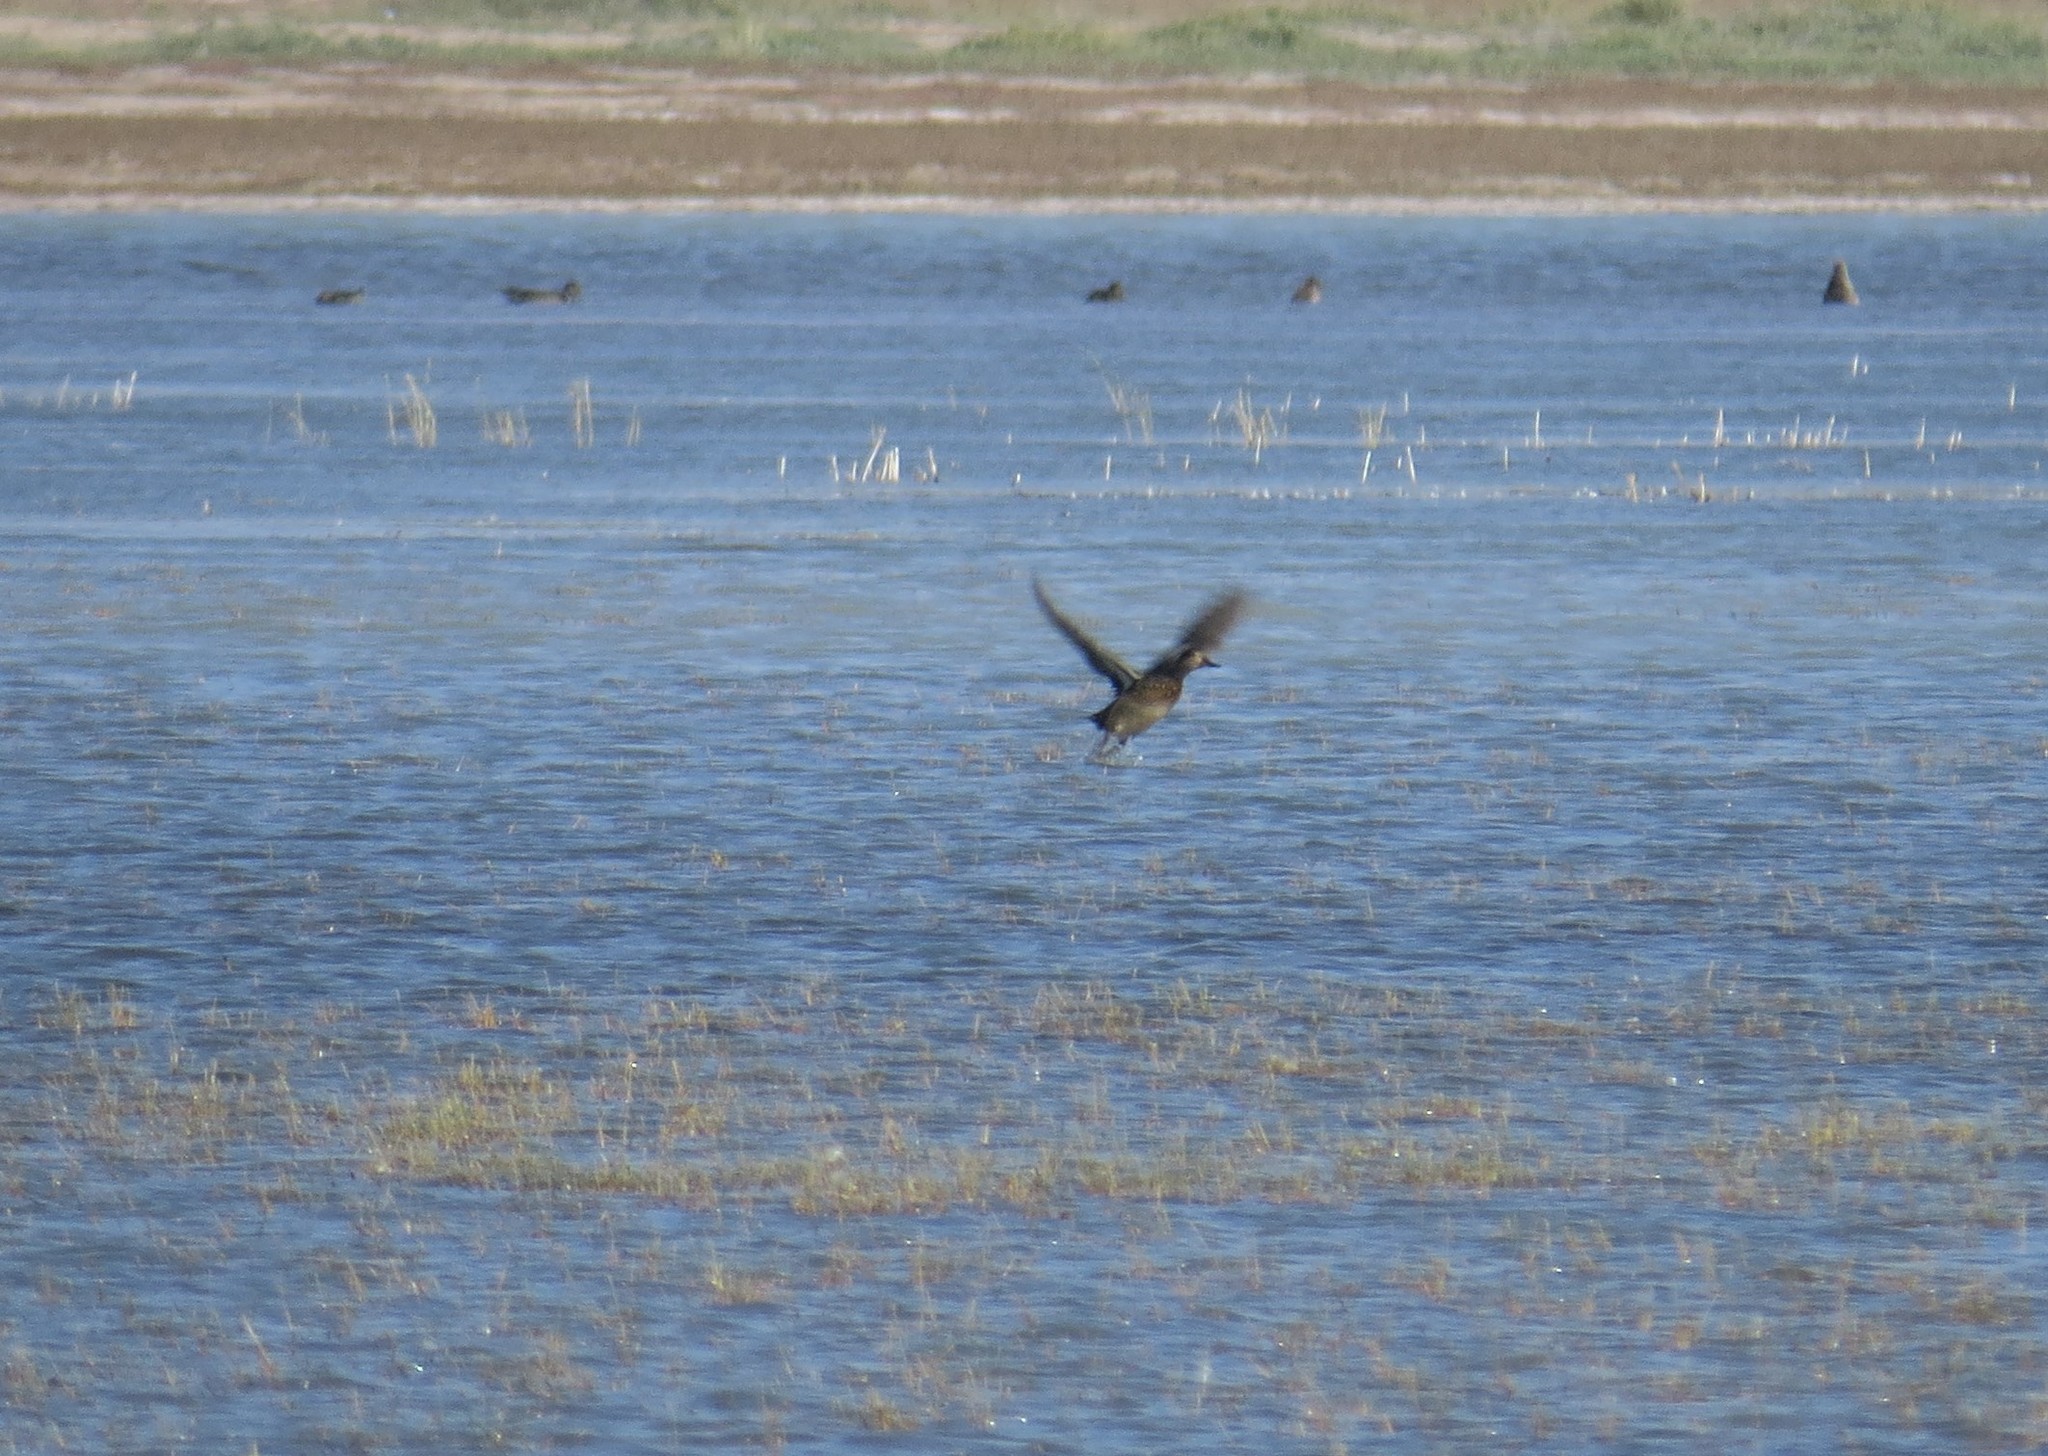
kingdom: Animalia
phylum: Chordata
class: Aves
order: Anseriformes
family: Anatidae
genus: Mareca
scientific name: Mareca strepera
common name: Gadwall
